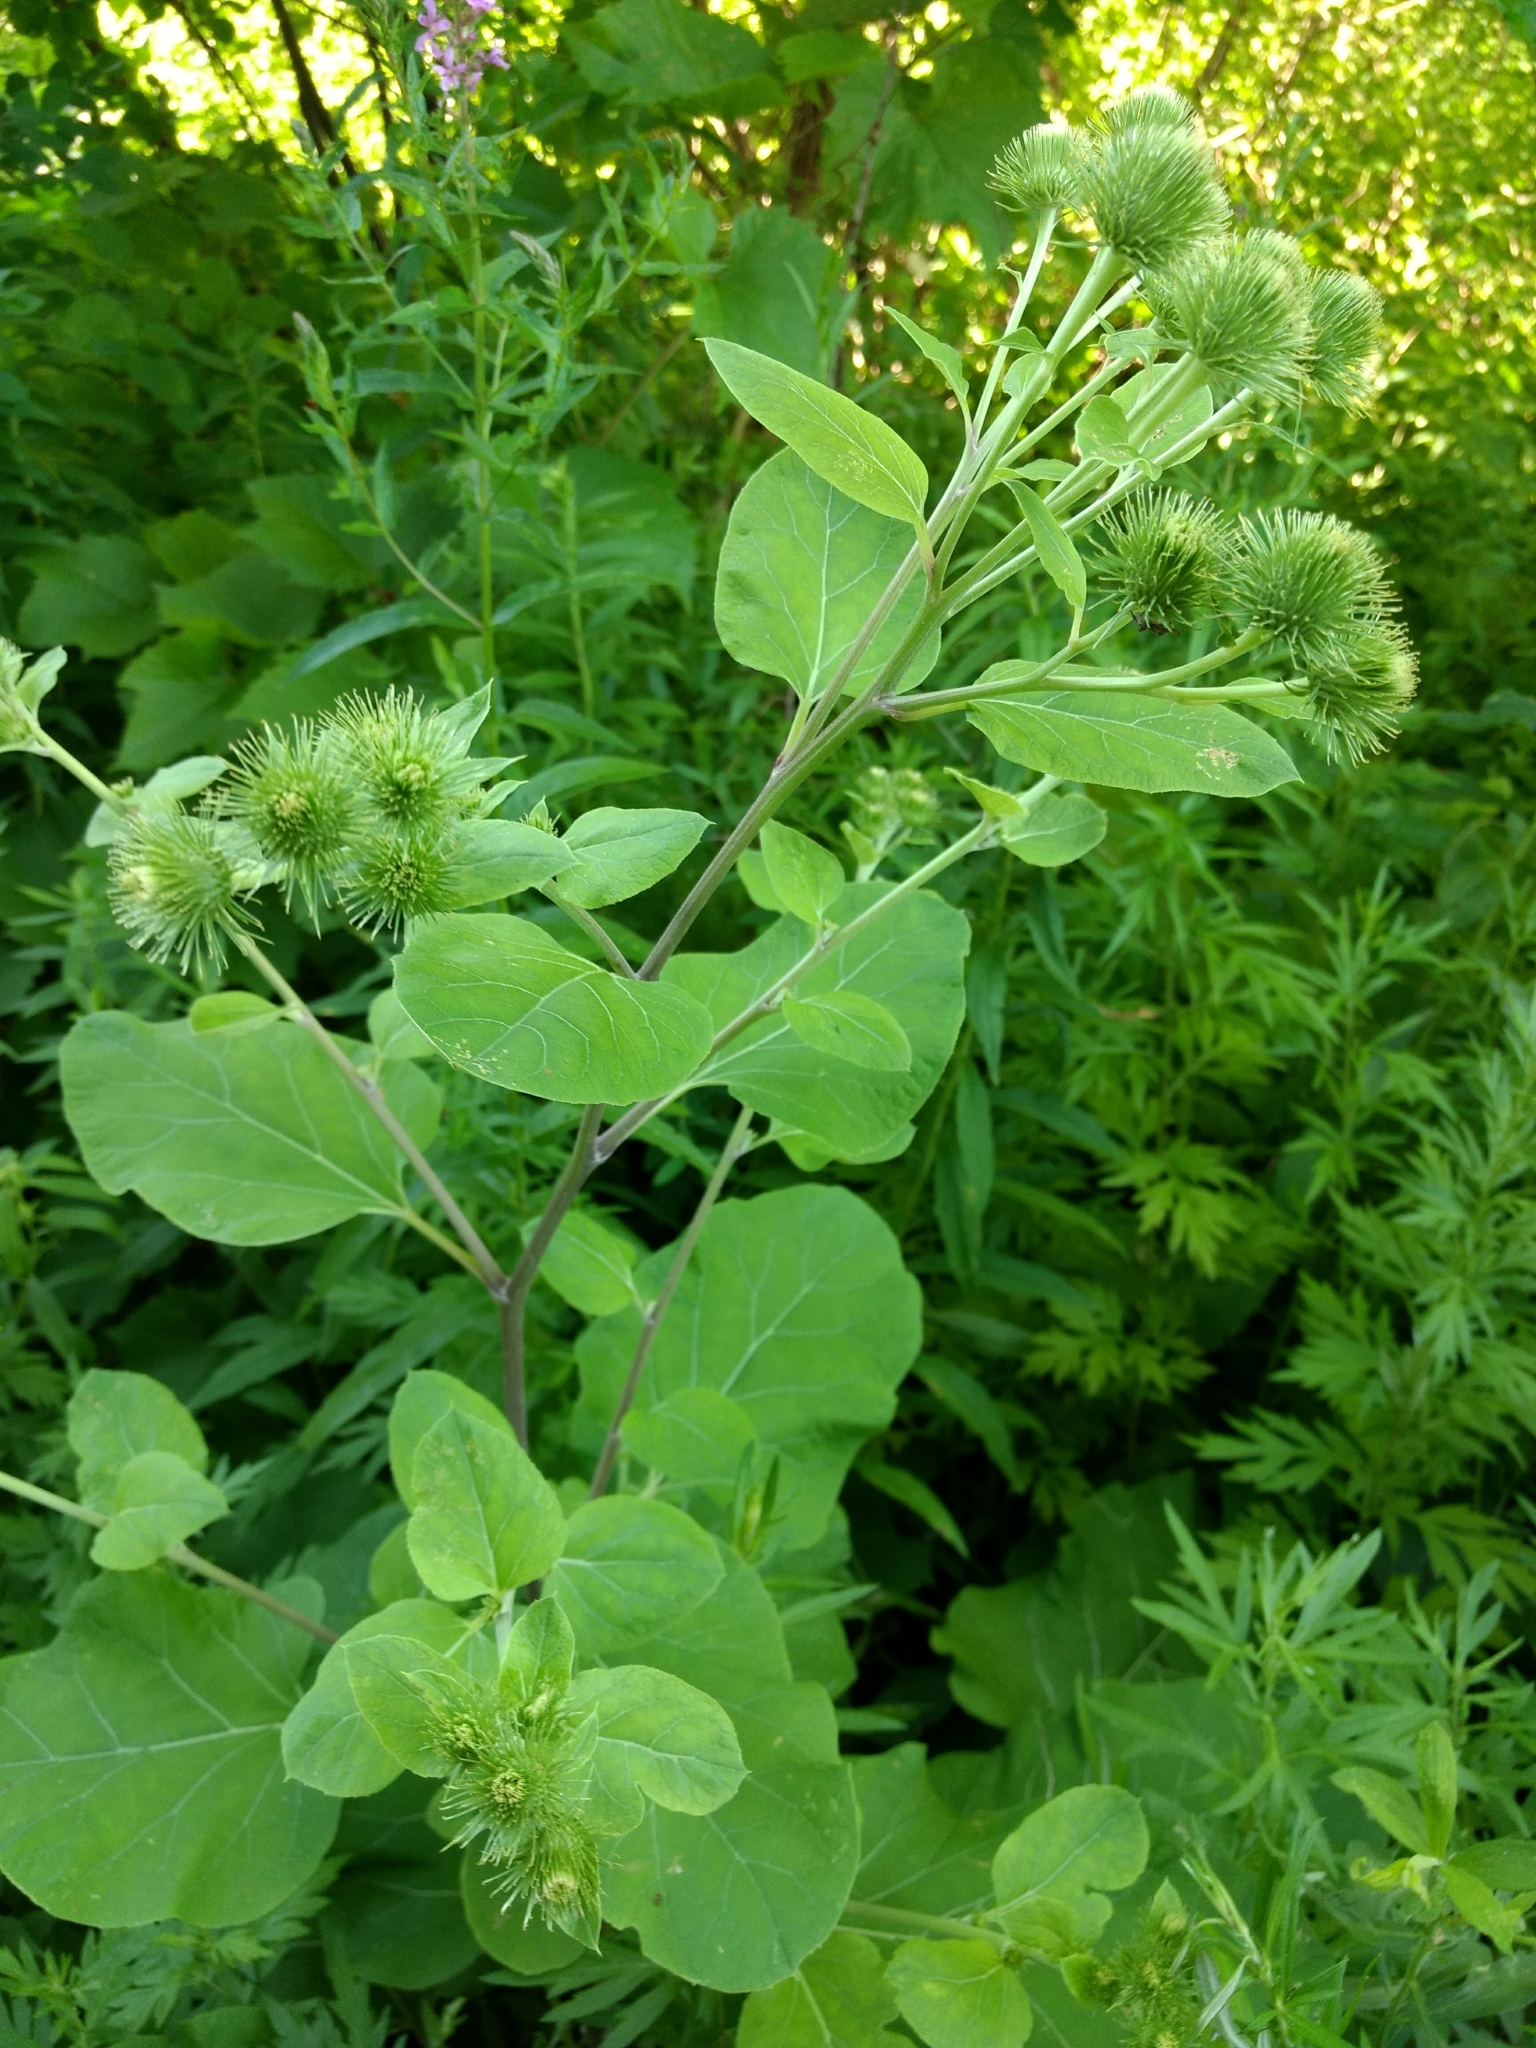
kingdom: Plantae
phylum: Tracheophyta
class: Magnoliopsida
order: Asterales
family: Asteraceae
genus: Arctium
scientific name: Arctium lappa
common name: Greater burdock
